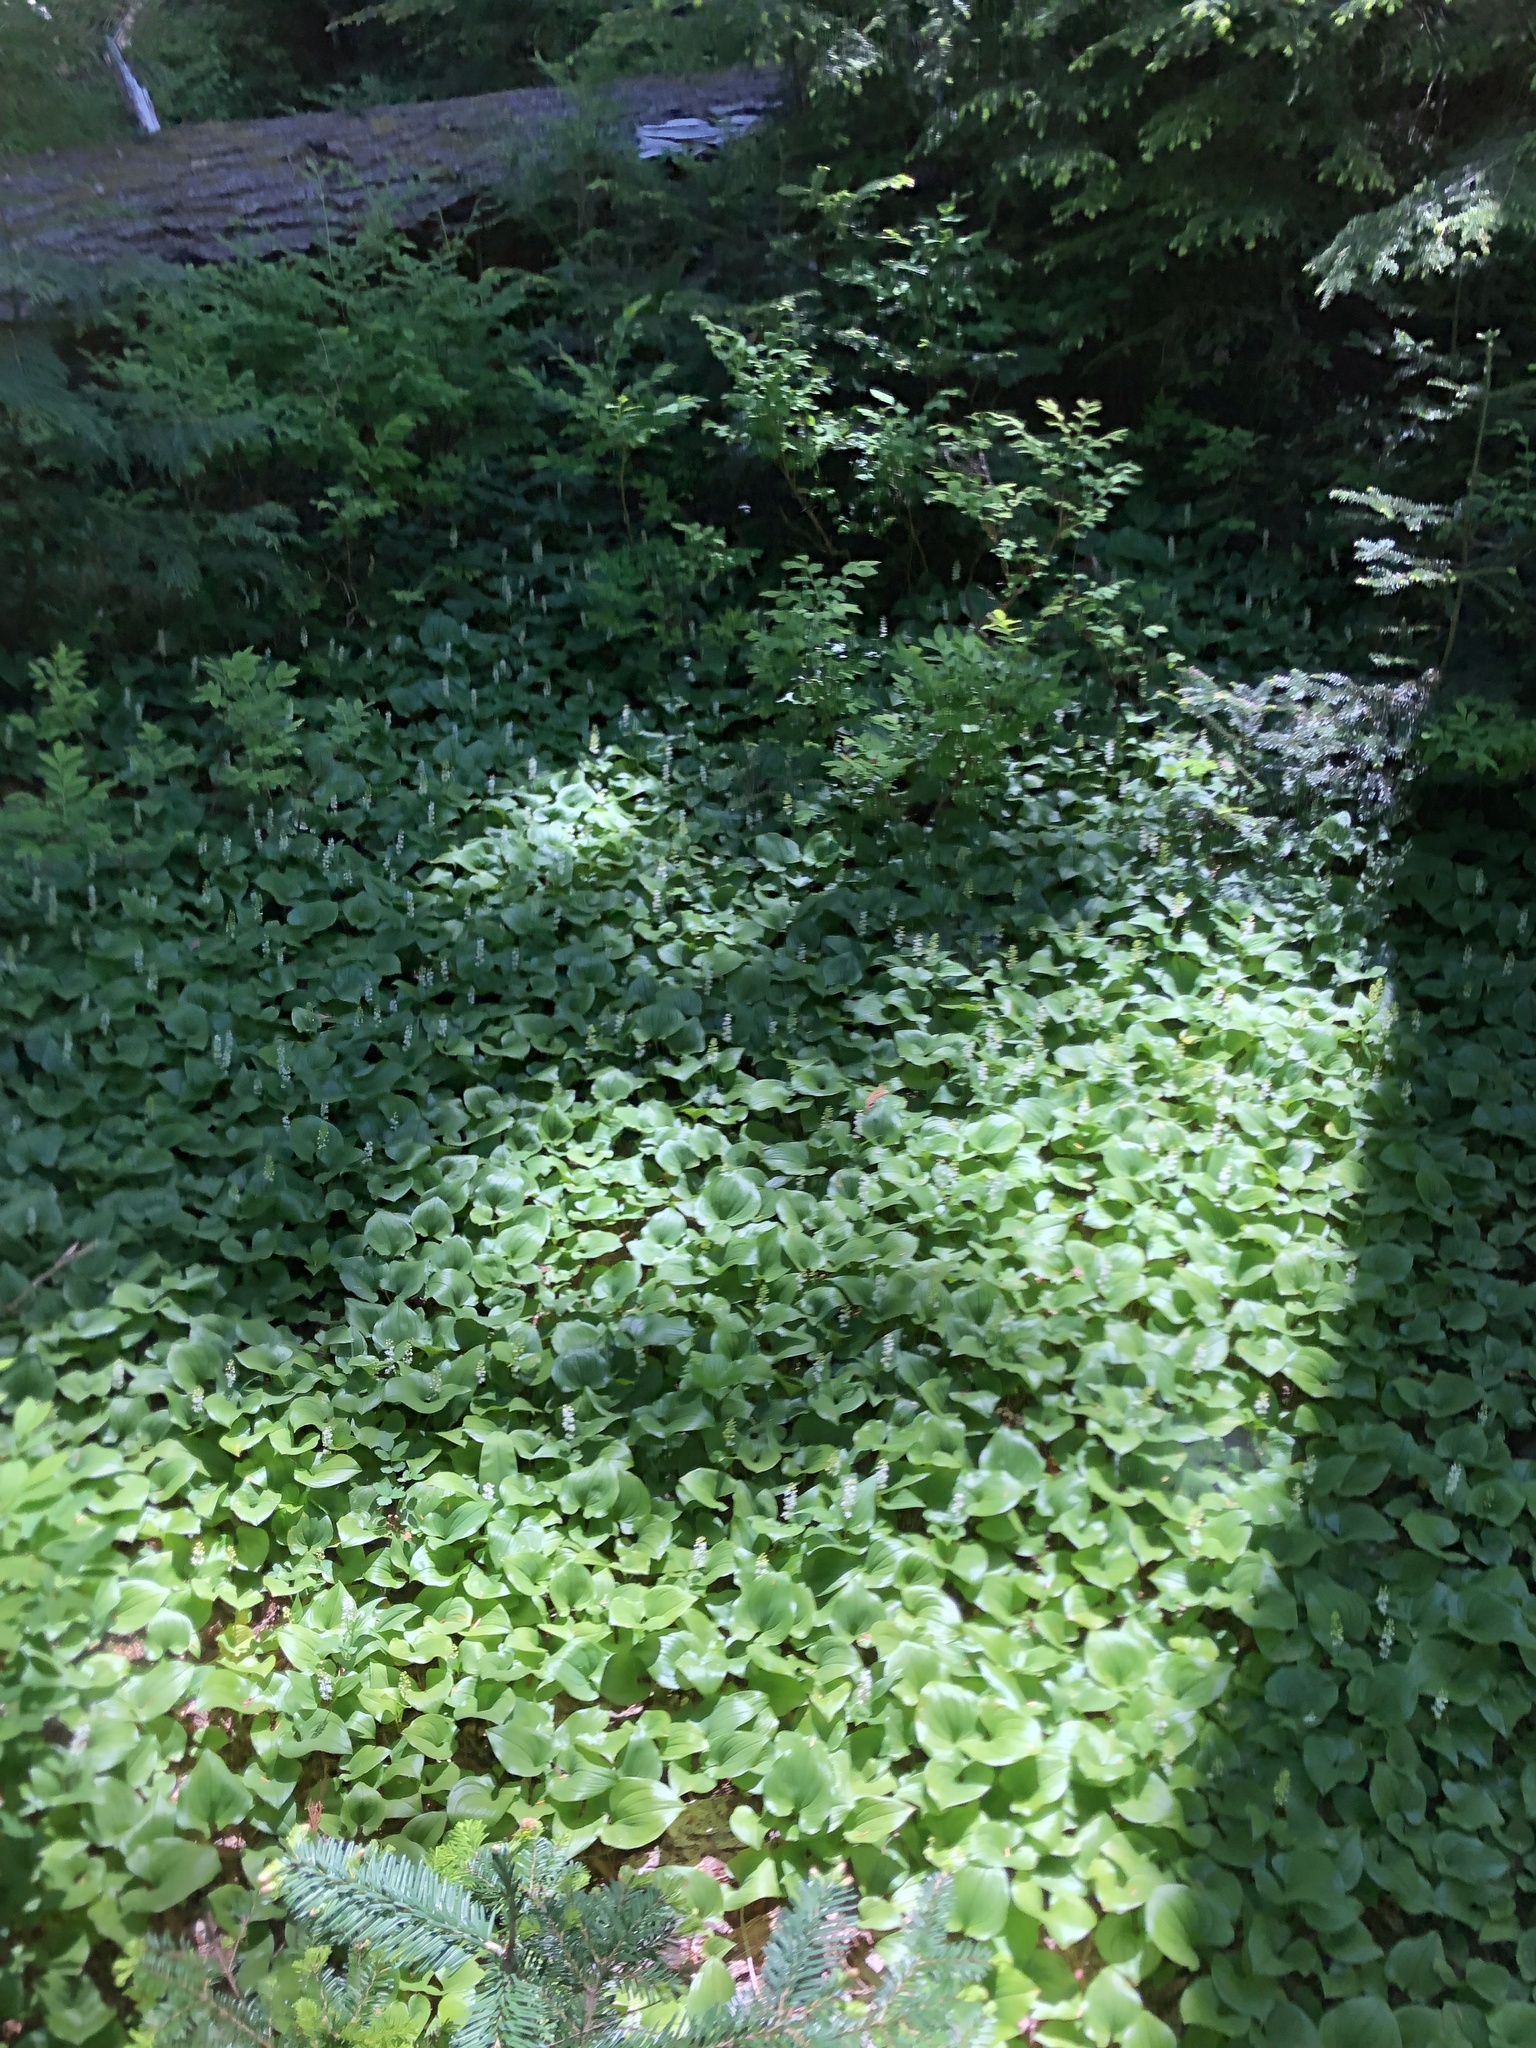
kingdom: Plantae
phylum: Tracheophyta
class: Liliopsida
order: Asparagales
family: Asparagaceae
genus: Maianthemum
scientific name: Maianthemum dilatatum
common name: False lily-of-the-valley
